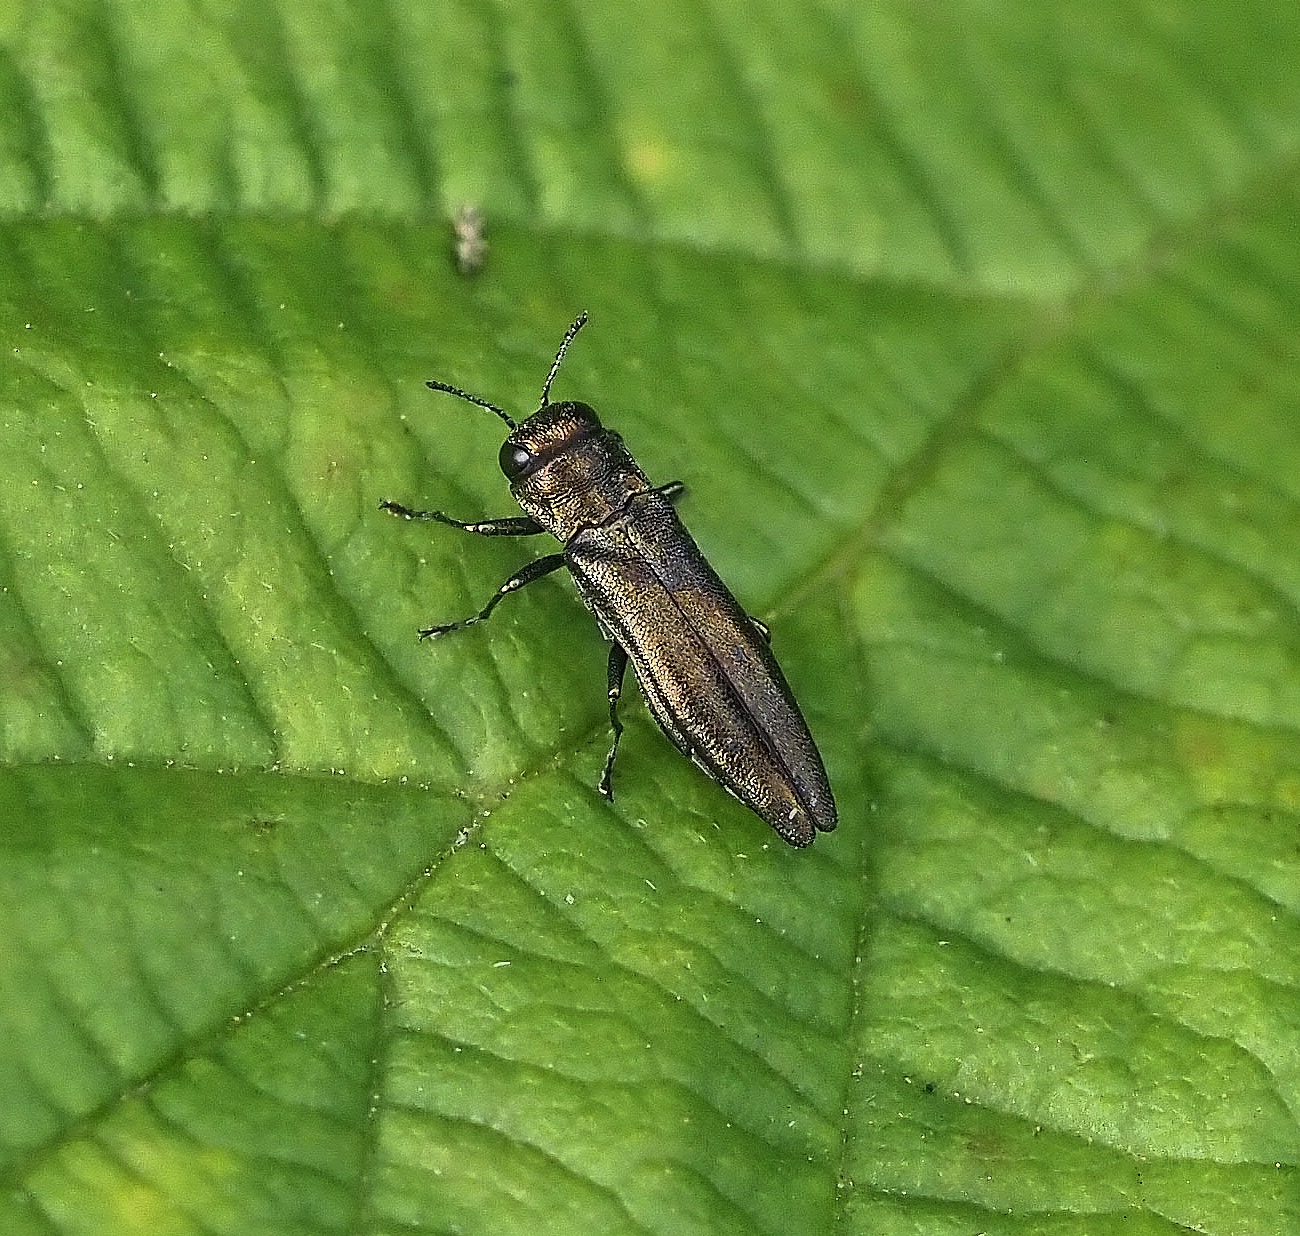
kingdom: Animalia
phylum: Arthropoda
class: Insecta
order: Coleoptera
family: Buprestidae
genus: Agrilus
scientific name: Agrilus cuprescens
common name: Rose stem girdler
